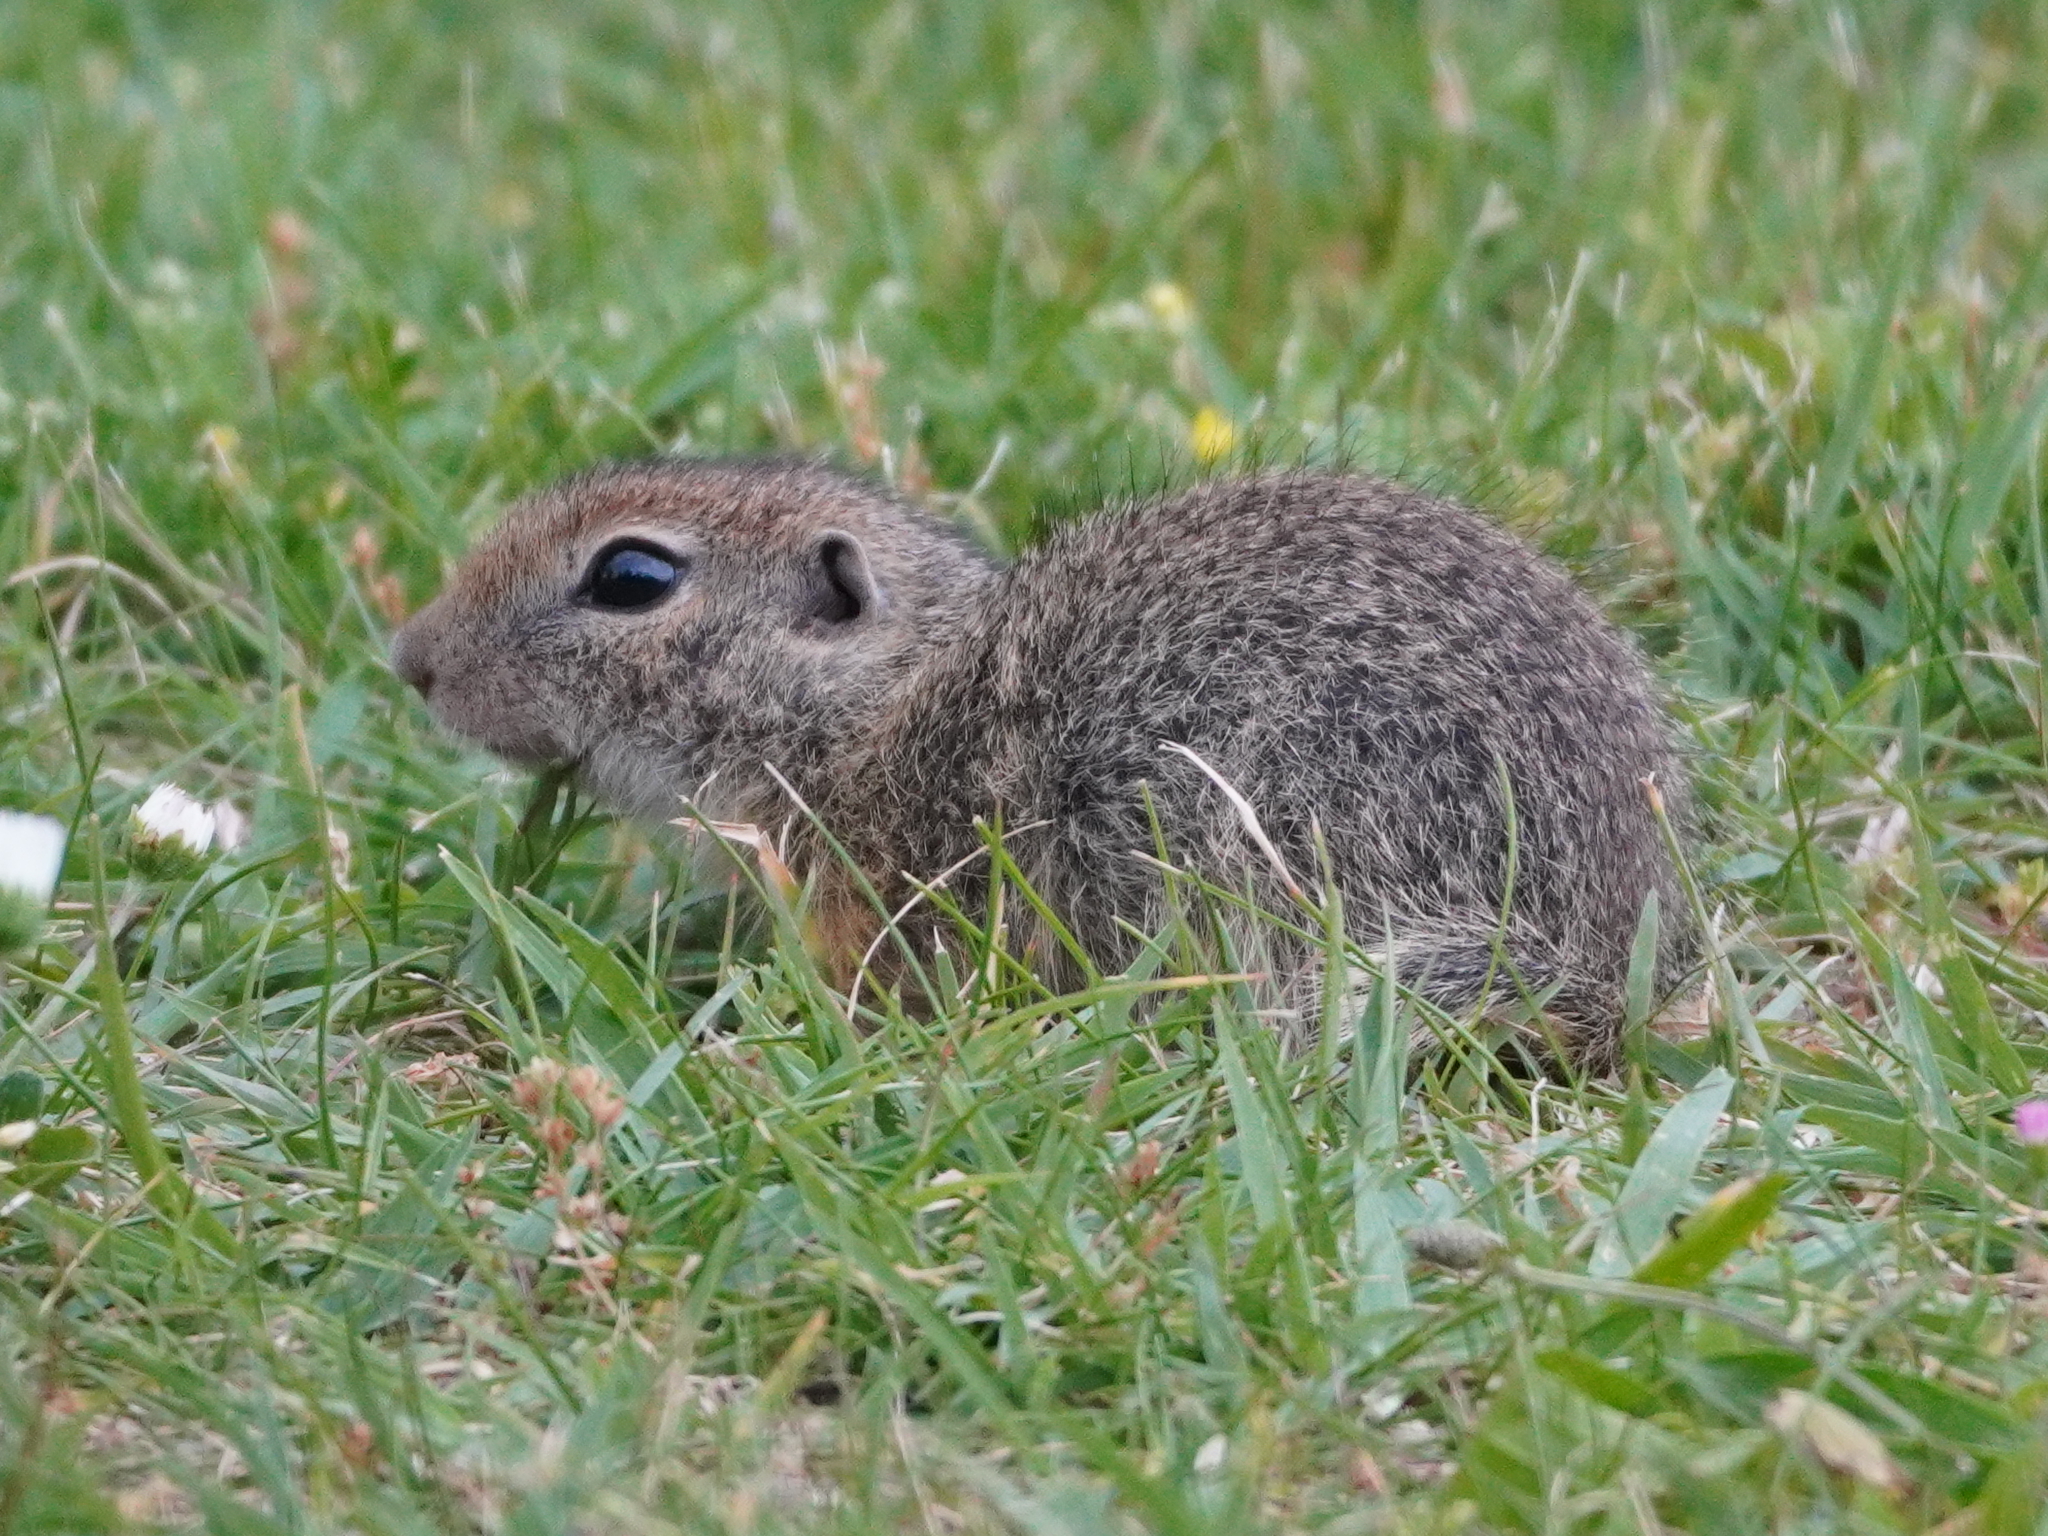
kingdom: Animalia
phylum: Chordata
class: Mammalia
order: Rodentia
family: Sciuridae
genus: Spermophilus
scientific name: Spermophilus citellus
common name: European ground squirrel
